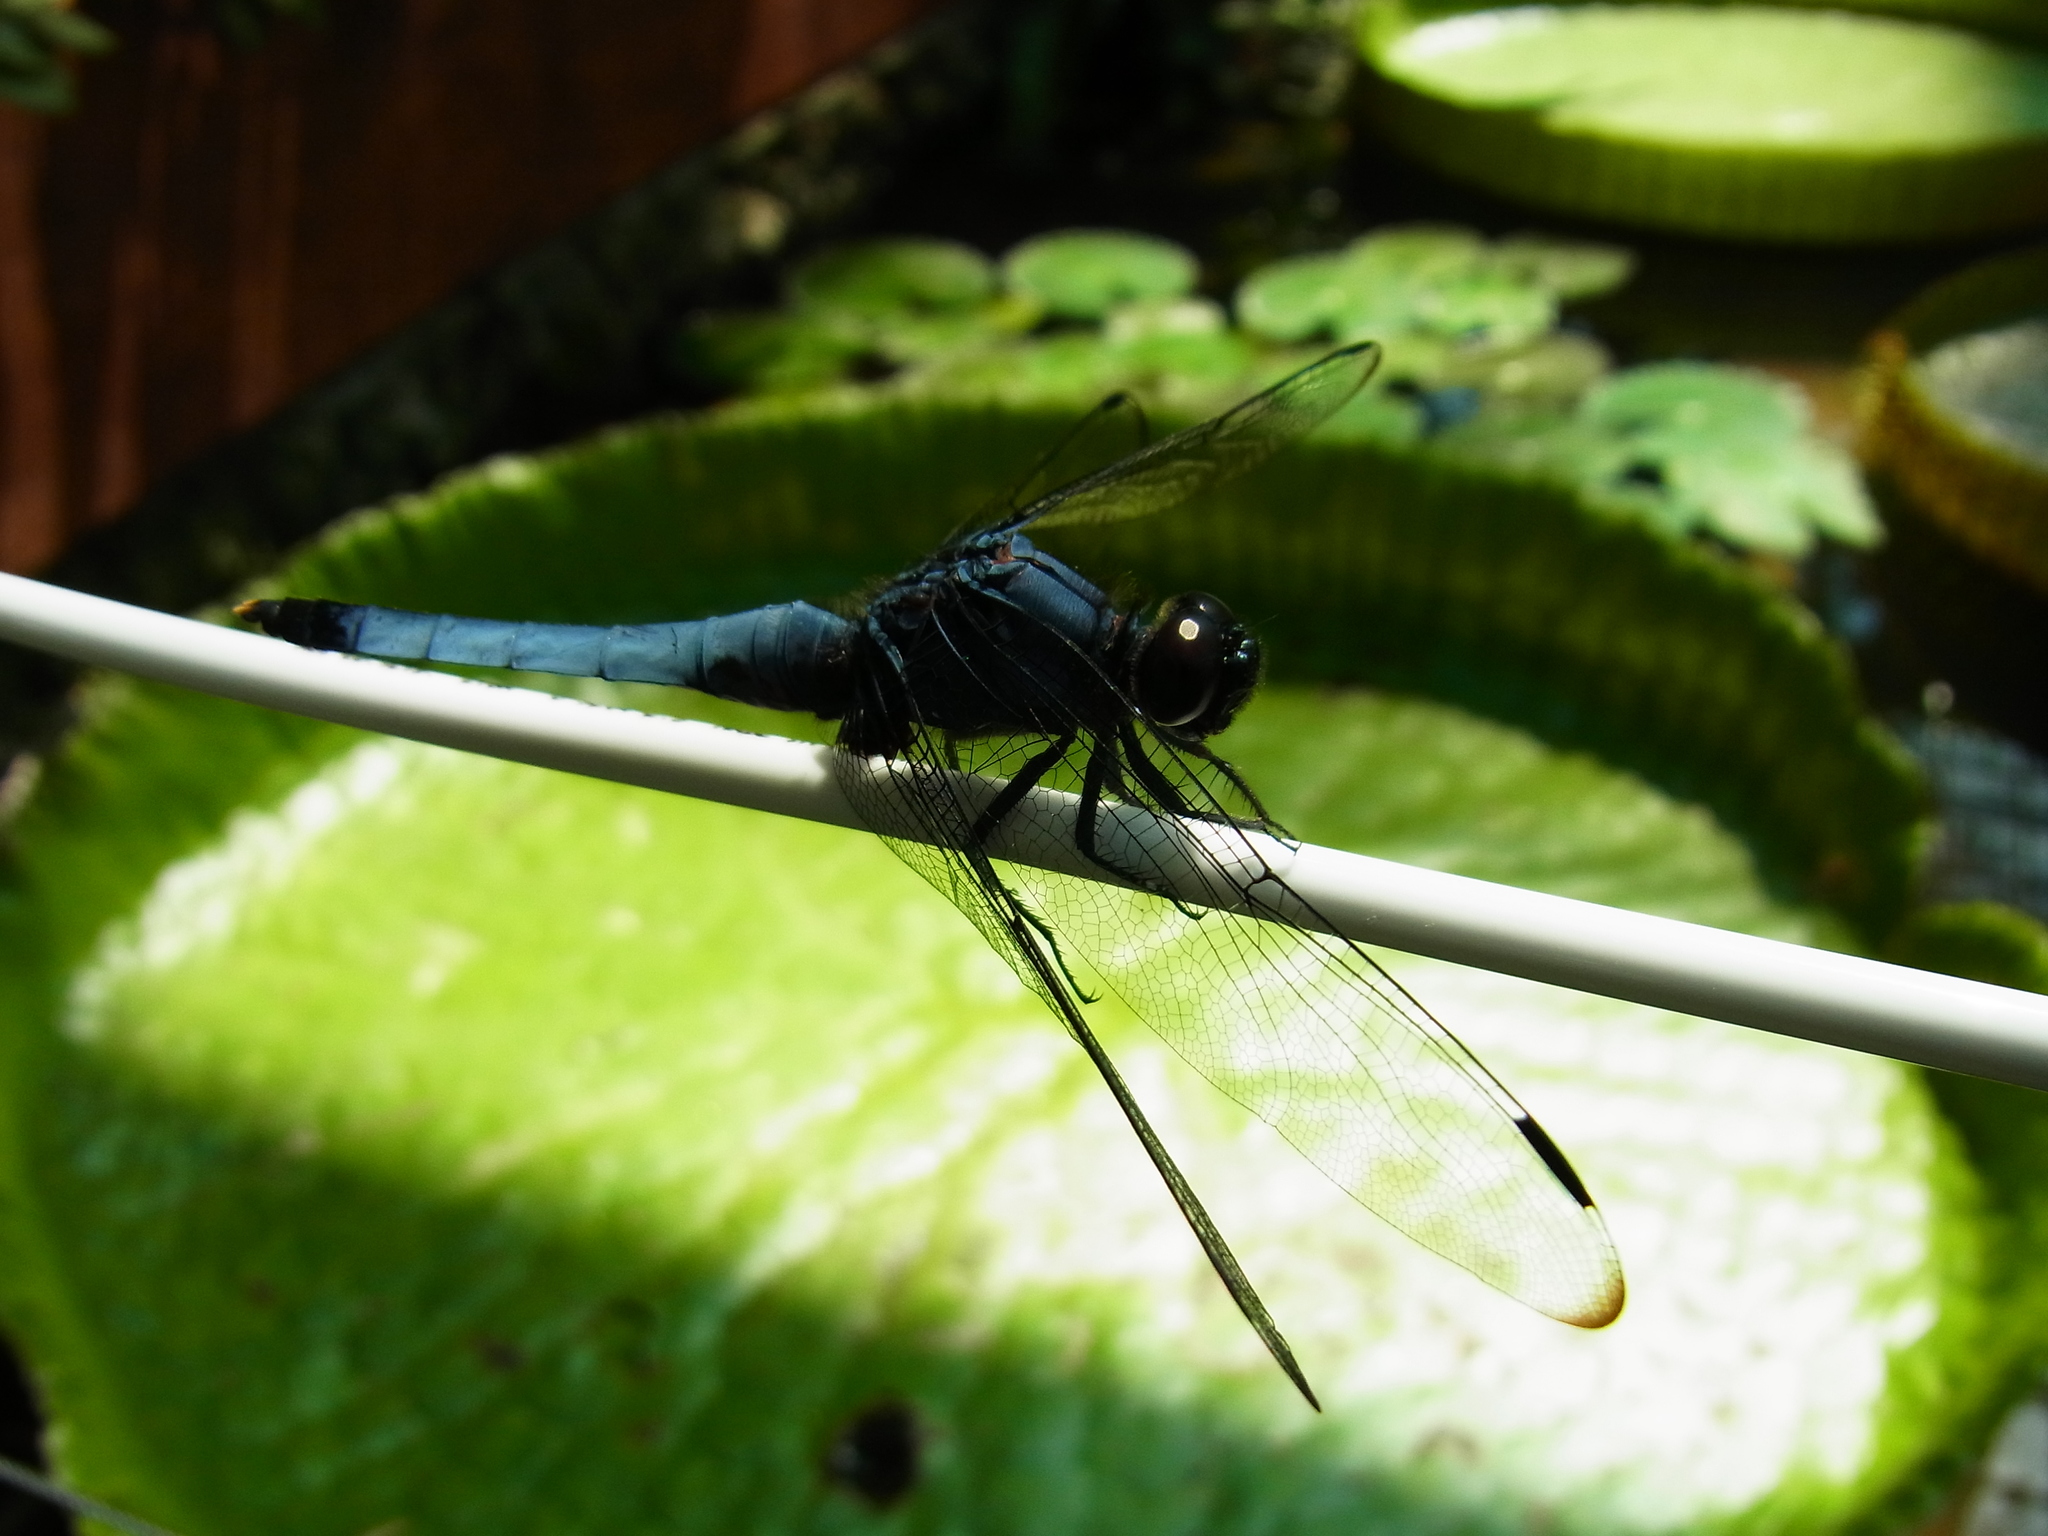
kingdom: Animalia
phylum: Arthropoda
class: Insecta
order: Odonata
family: Libellulidae
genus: Orthetrum
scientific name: Orthetrum melania
